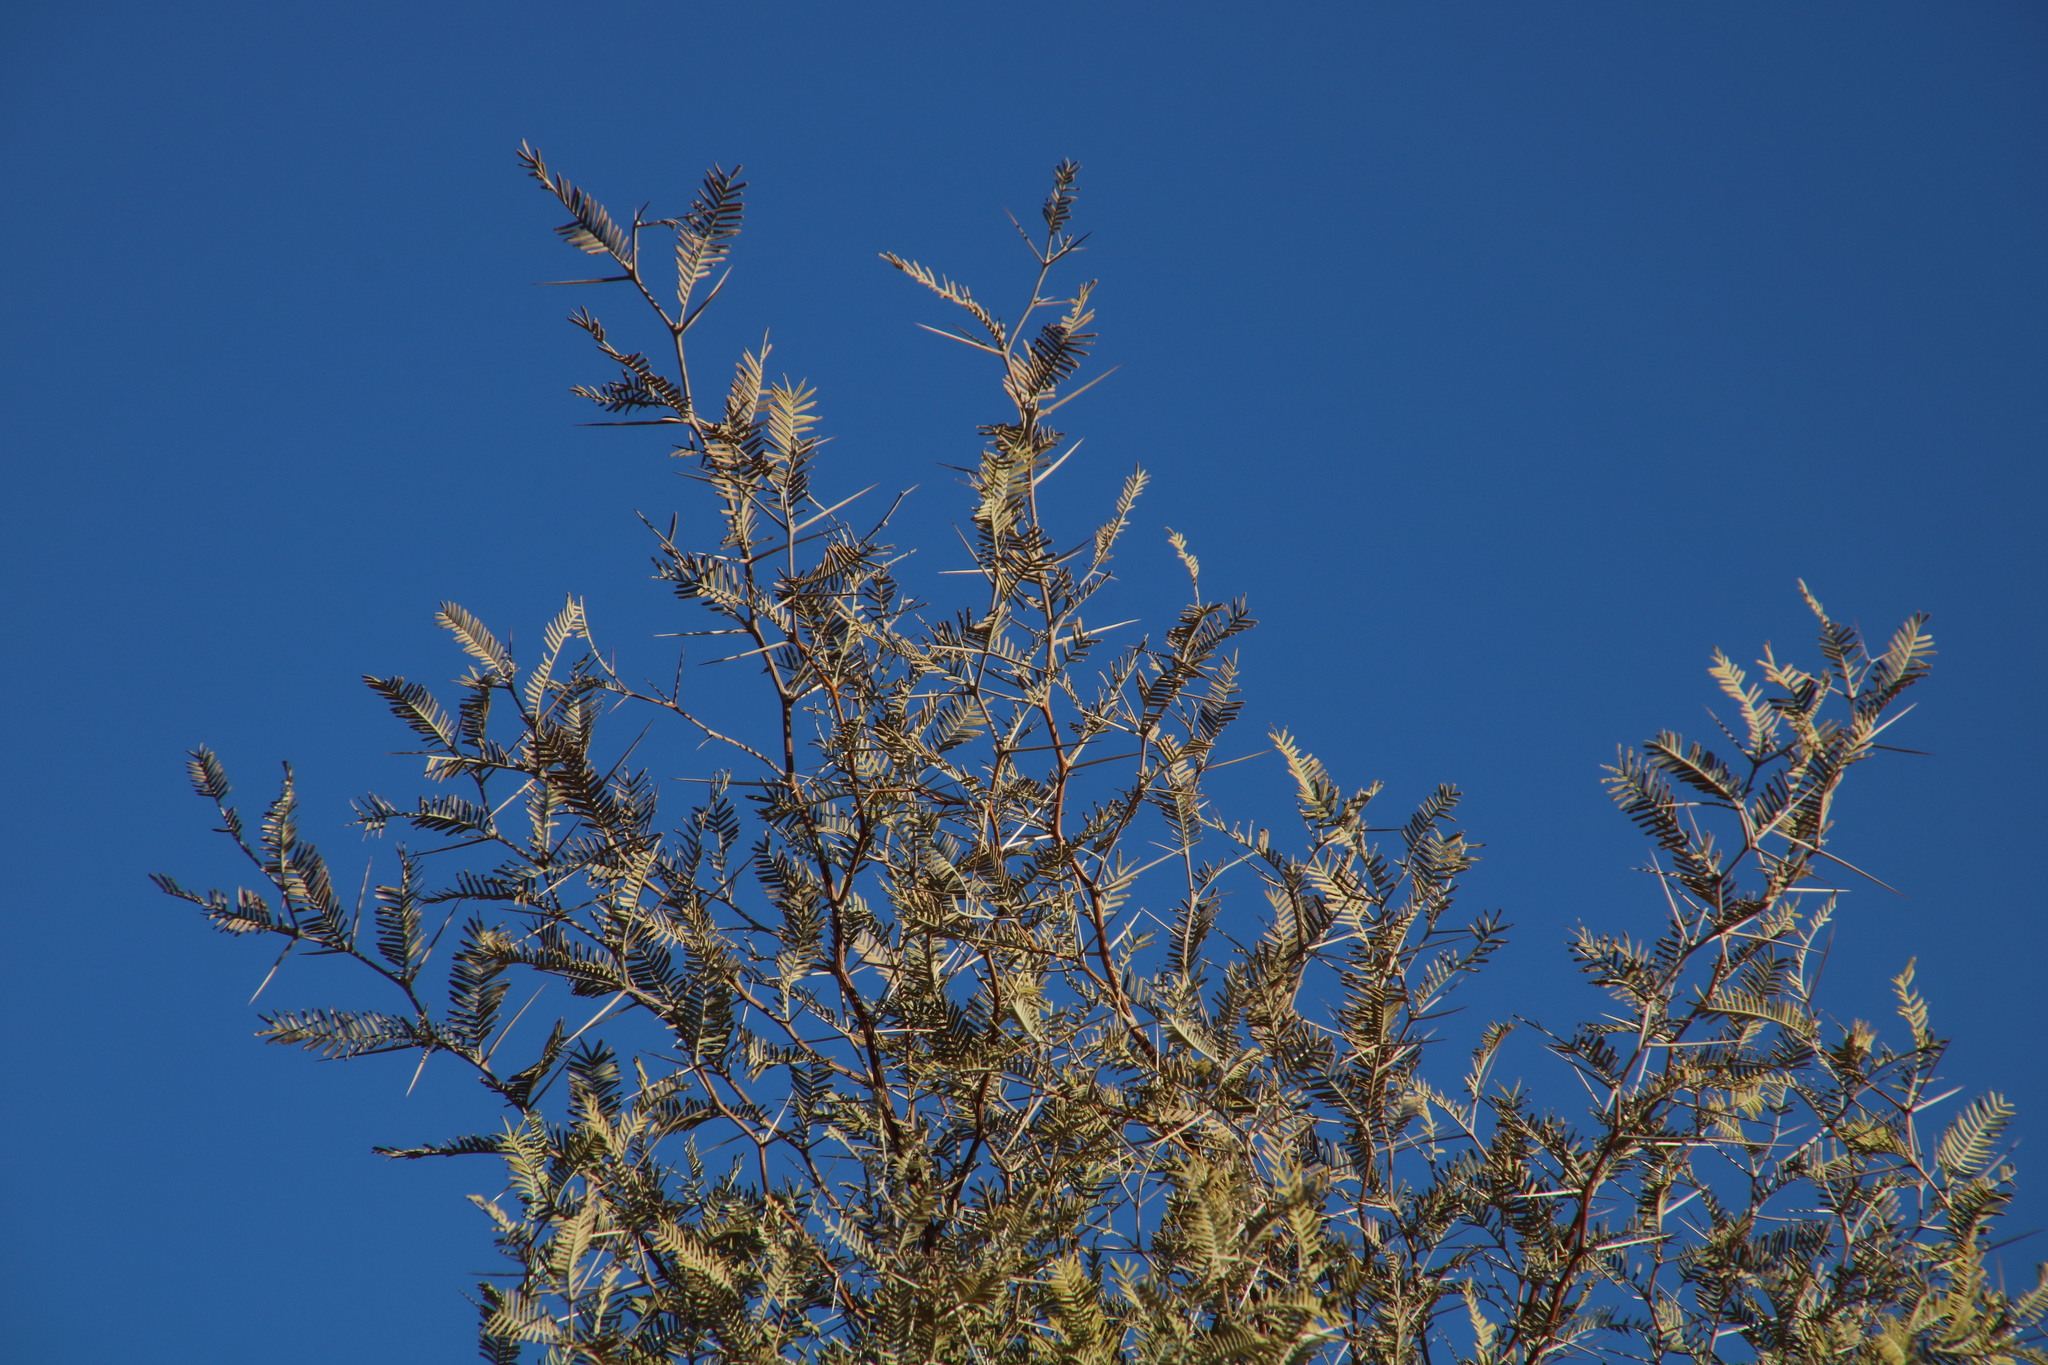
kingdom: Plantae
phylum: Tracheophyta
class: Magnoliopsida
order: Fabales
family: Fabaceae
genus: Vachellia
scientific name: Vachellia haematoxylon
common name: Grey camel thorn
